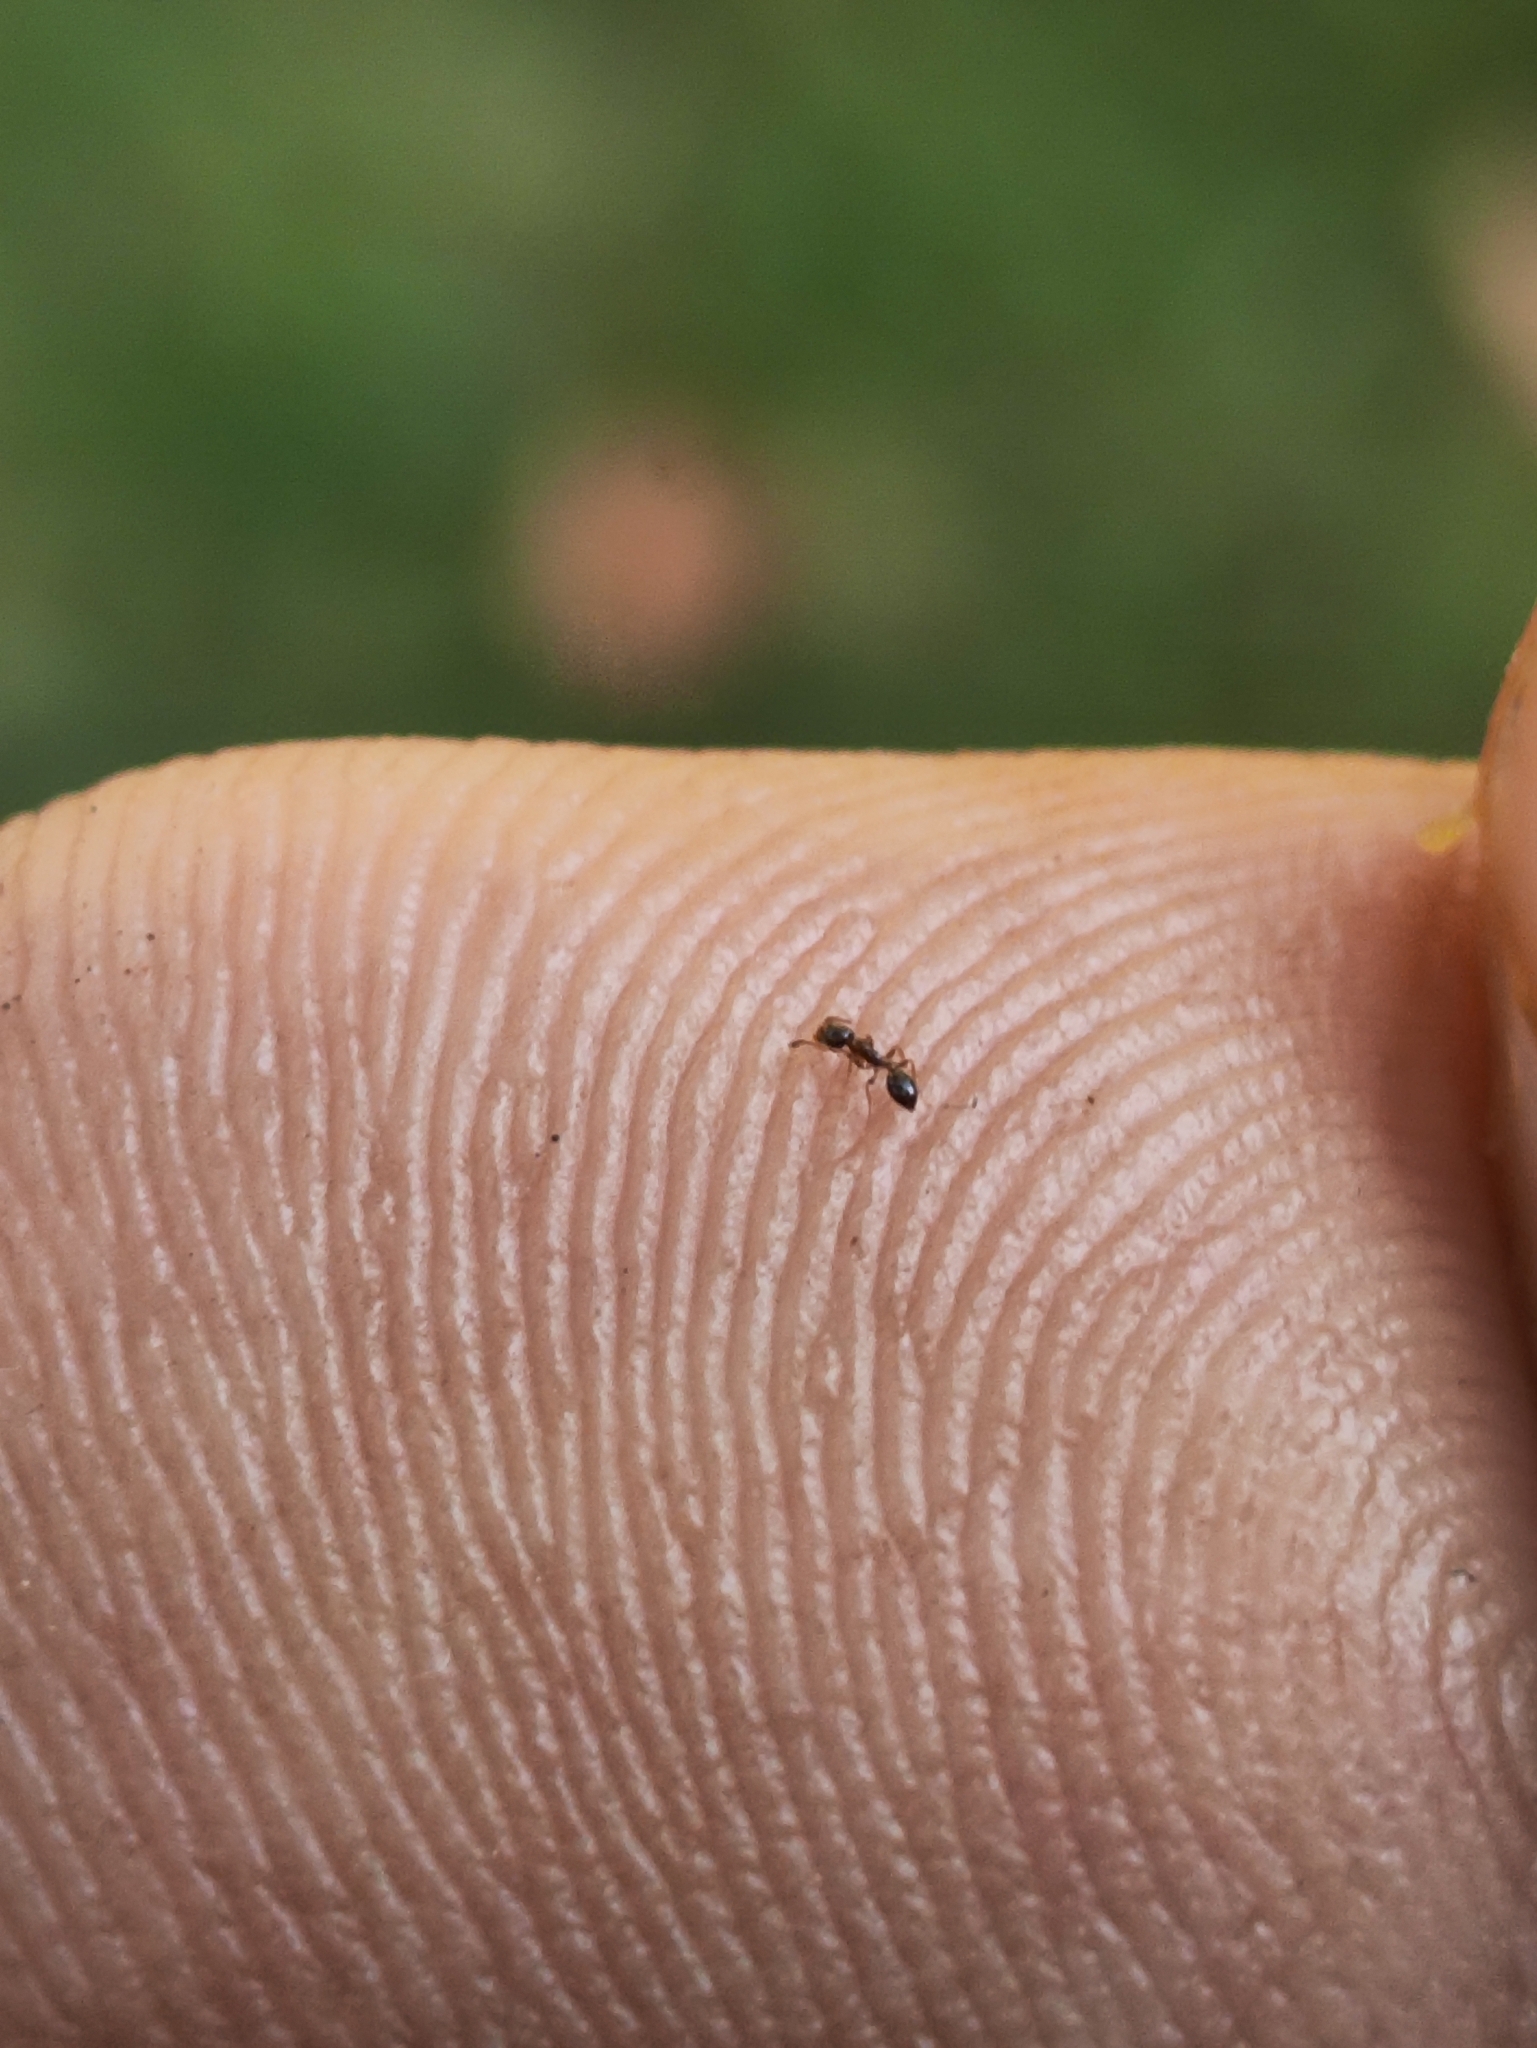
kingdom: Animalia
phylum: Arthropoda
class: Insecta
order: Hymenoptera
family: Formicidae
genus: Monomorium
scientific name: Monomorium floricola
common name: Bicolored trailing ant
